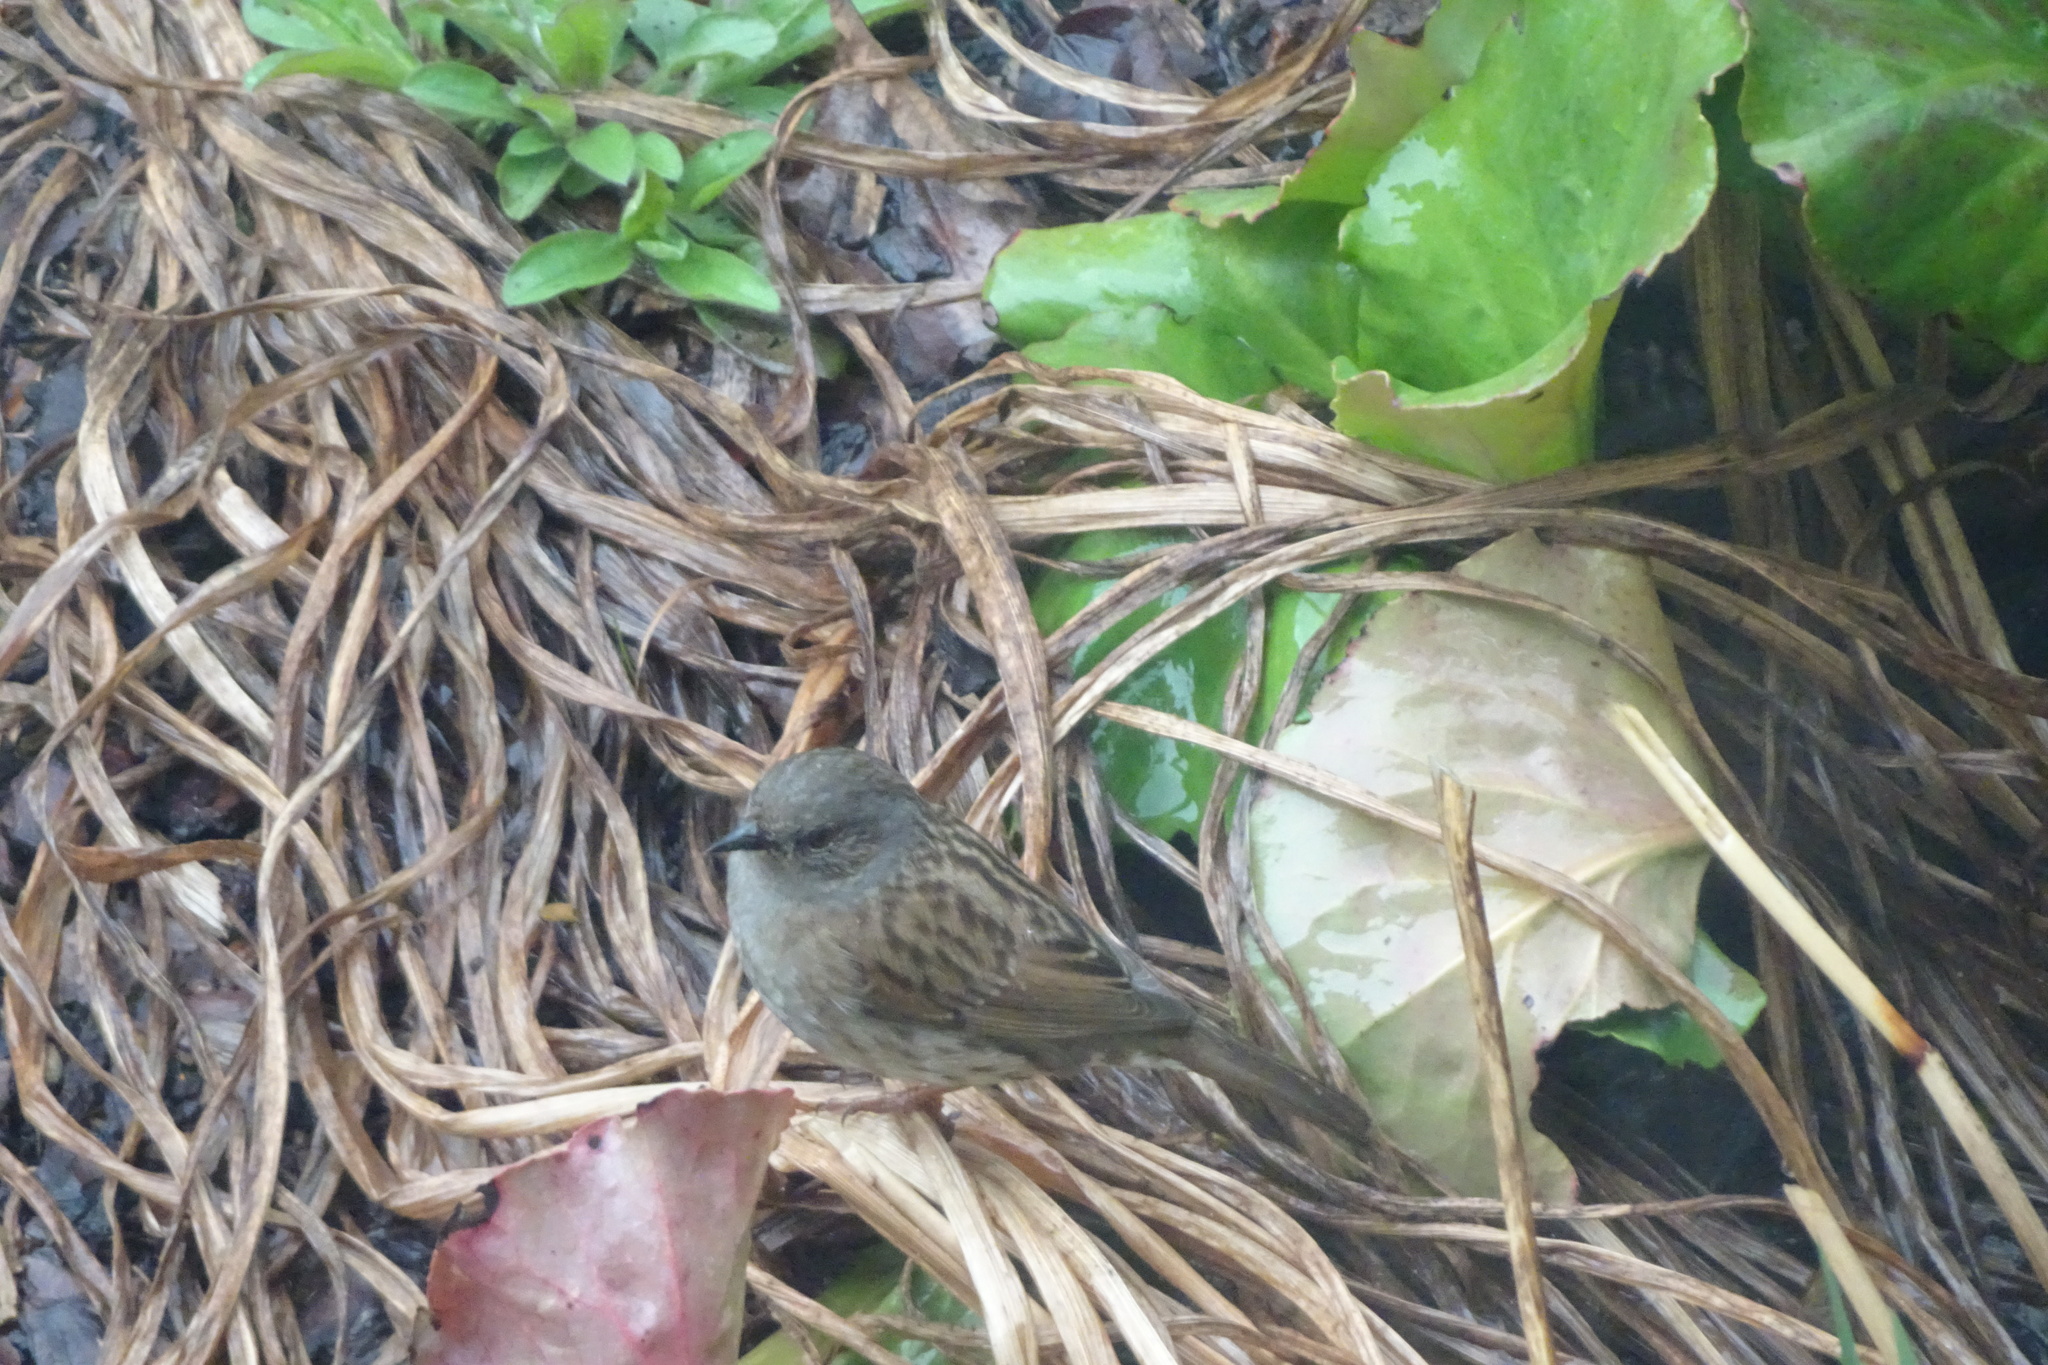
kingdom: Animalia
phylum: Chordata
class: Aves
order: Passeriformes
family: Prunellidae
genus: Prunella
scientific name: Prunella modularis
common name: Dunnock
